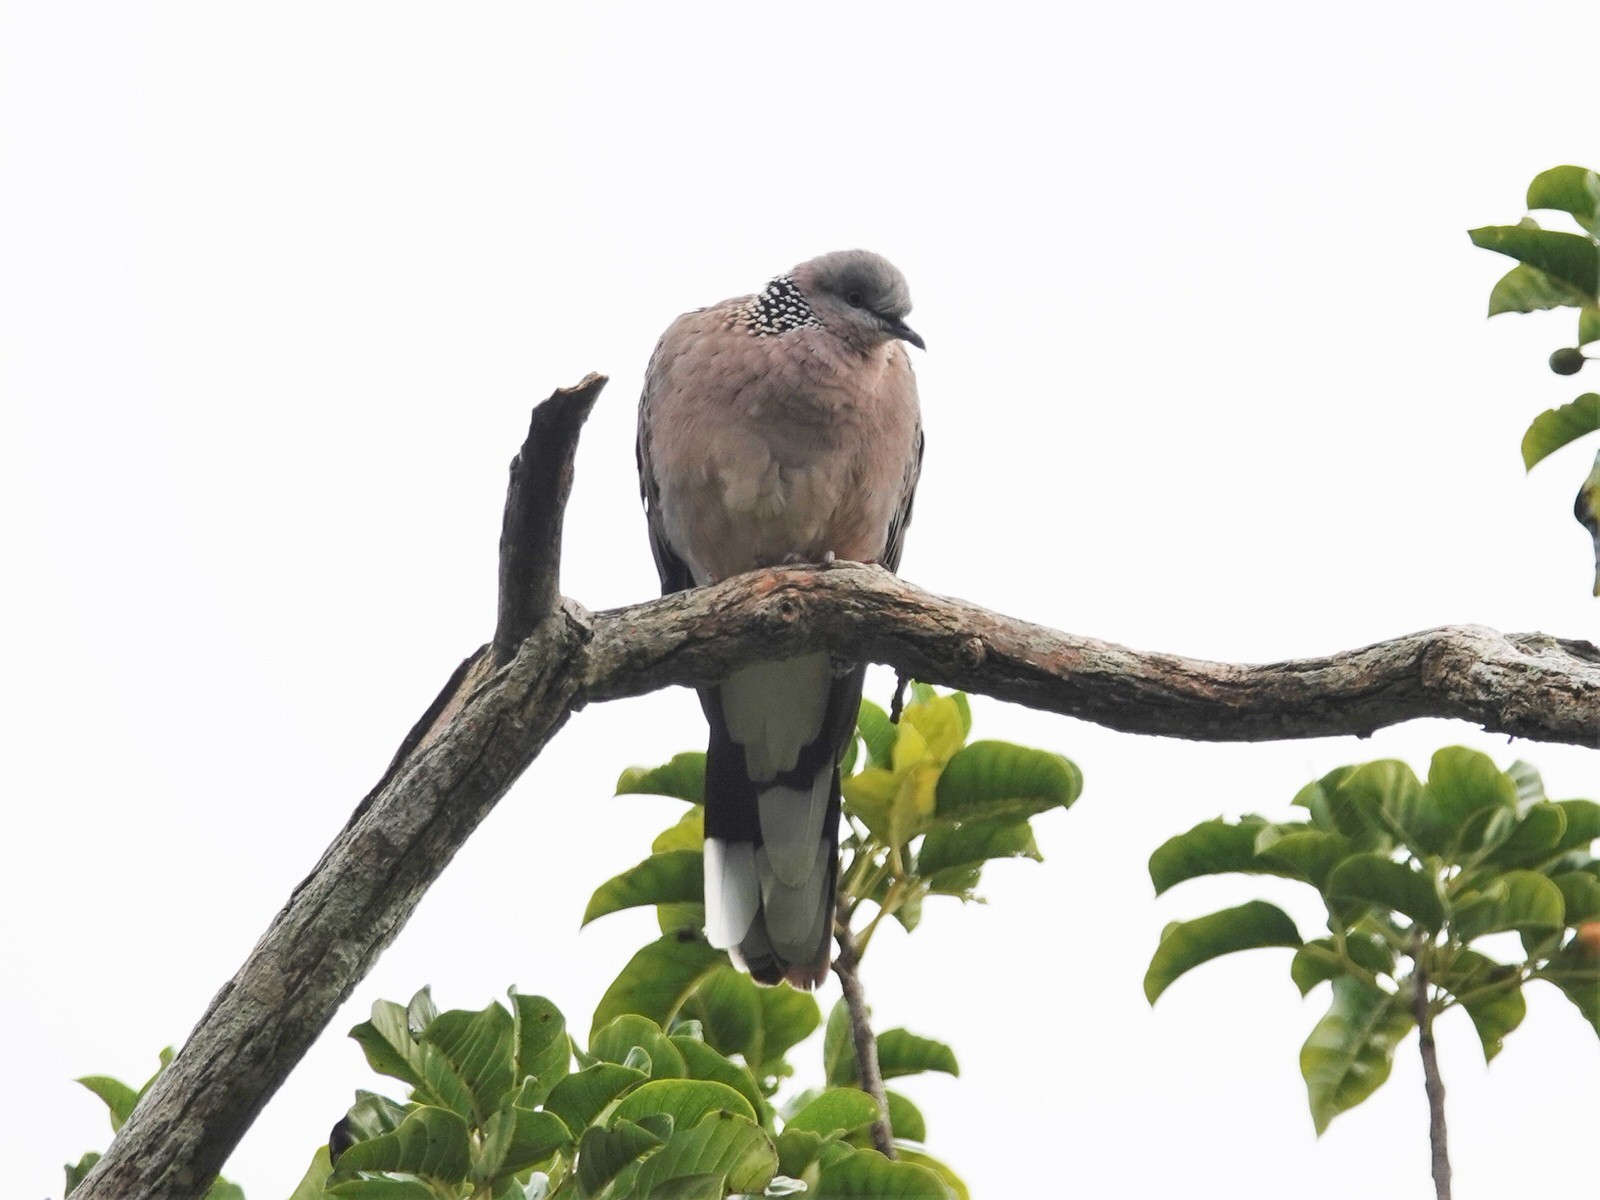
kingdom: Animalia
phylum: Chordata
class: Aves
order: Columbiformes
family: Columbidae
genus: Spilopelia
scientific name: Spilopelia chinensis
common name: Spotted dove
